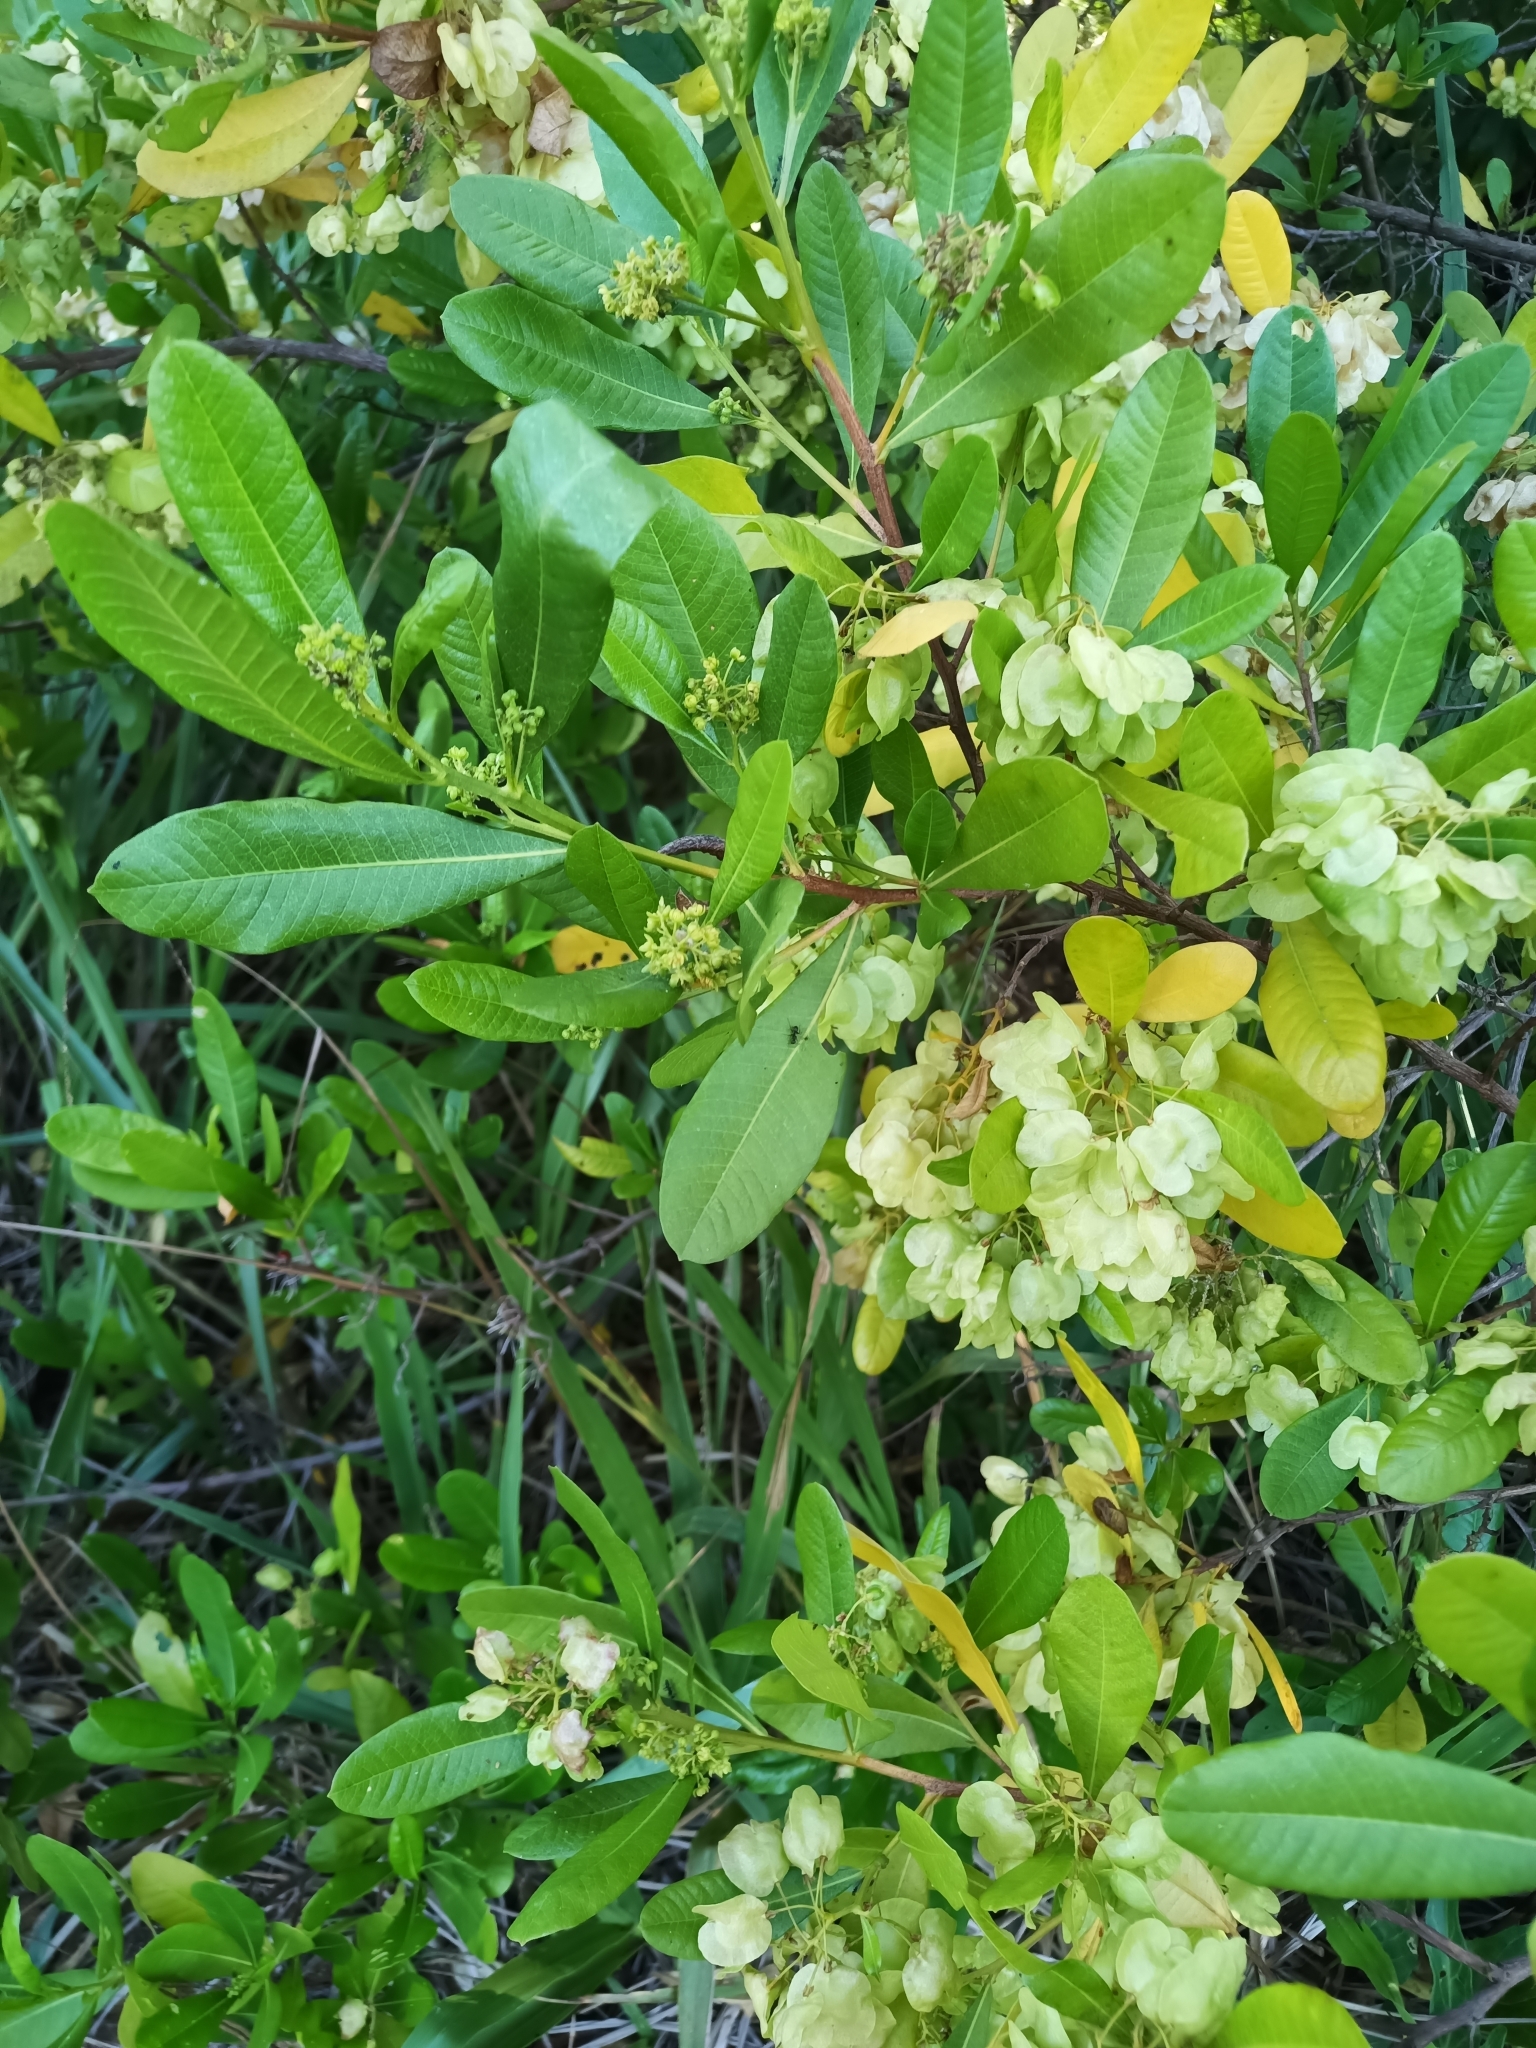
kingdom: Plantae
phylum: Tracheophyta
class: Magnoliopsida
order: Sapindales
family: Sapindaceae
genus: Dodonaea
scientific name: Dodonaea viscosa
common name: Hopbush
